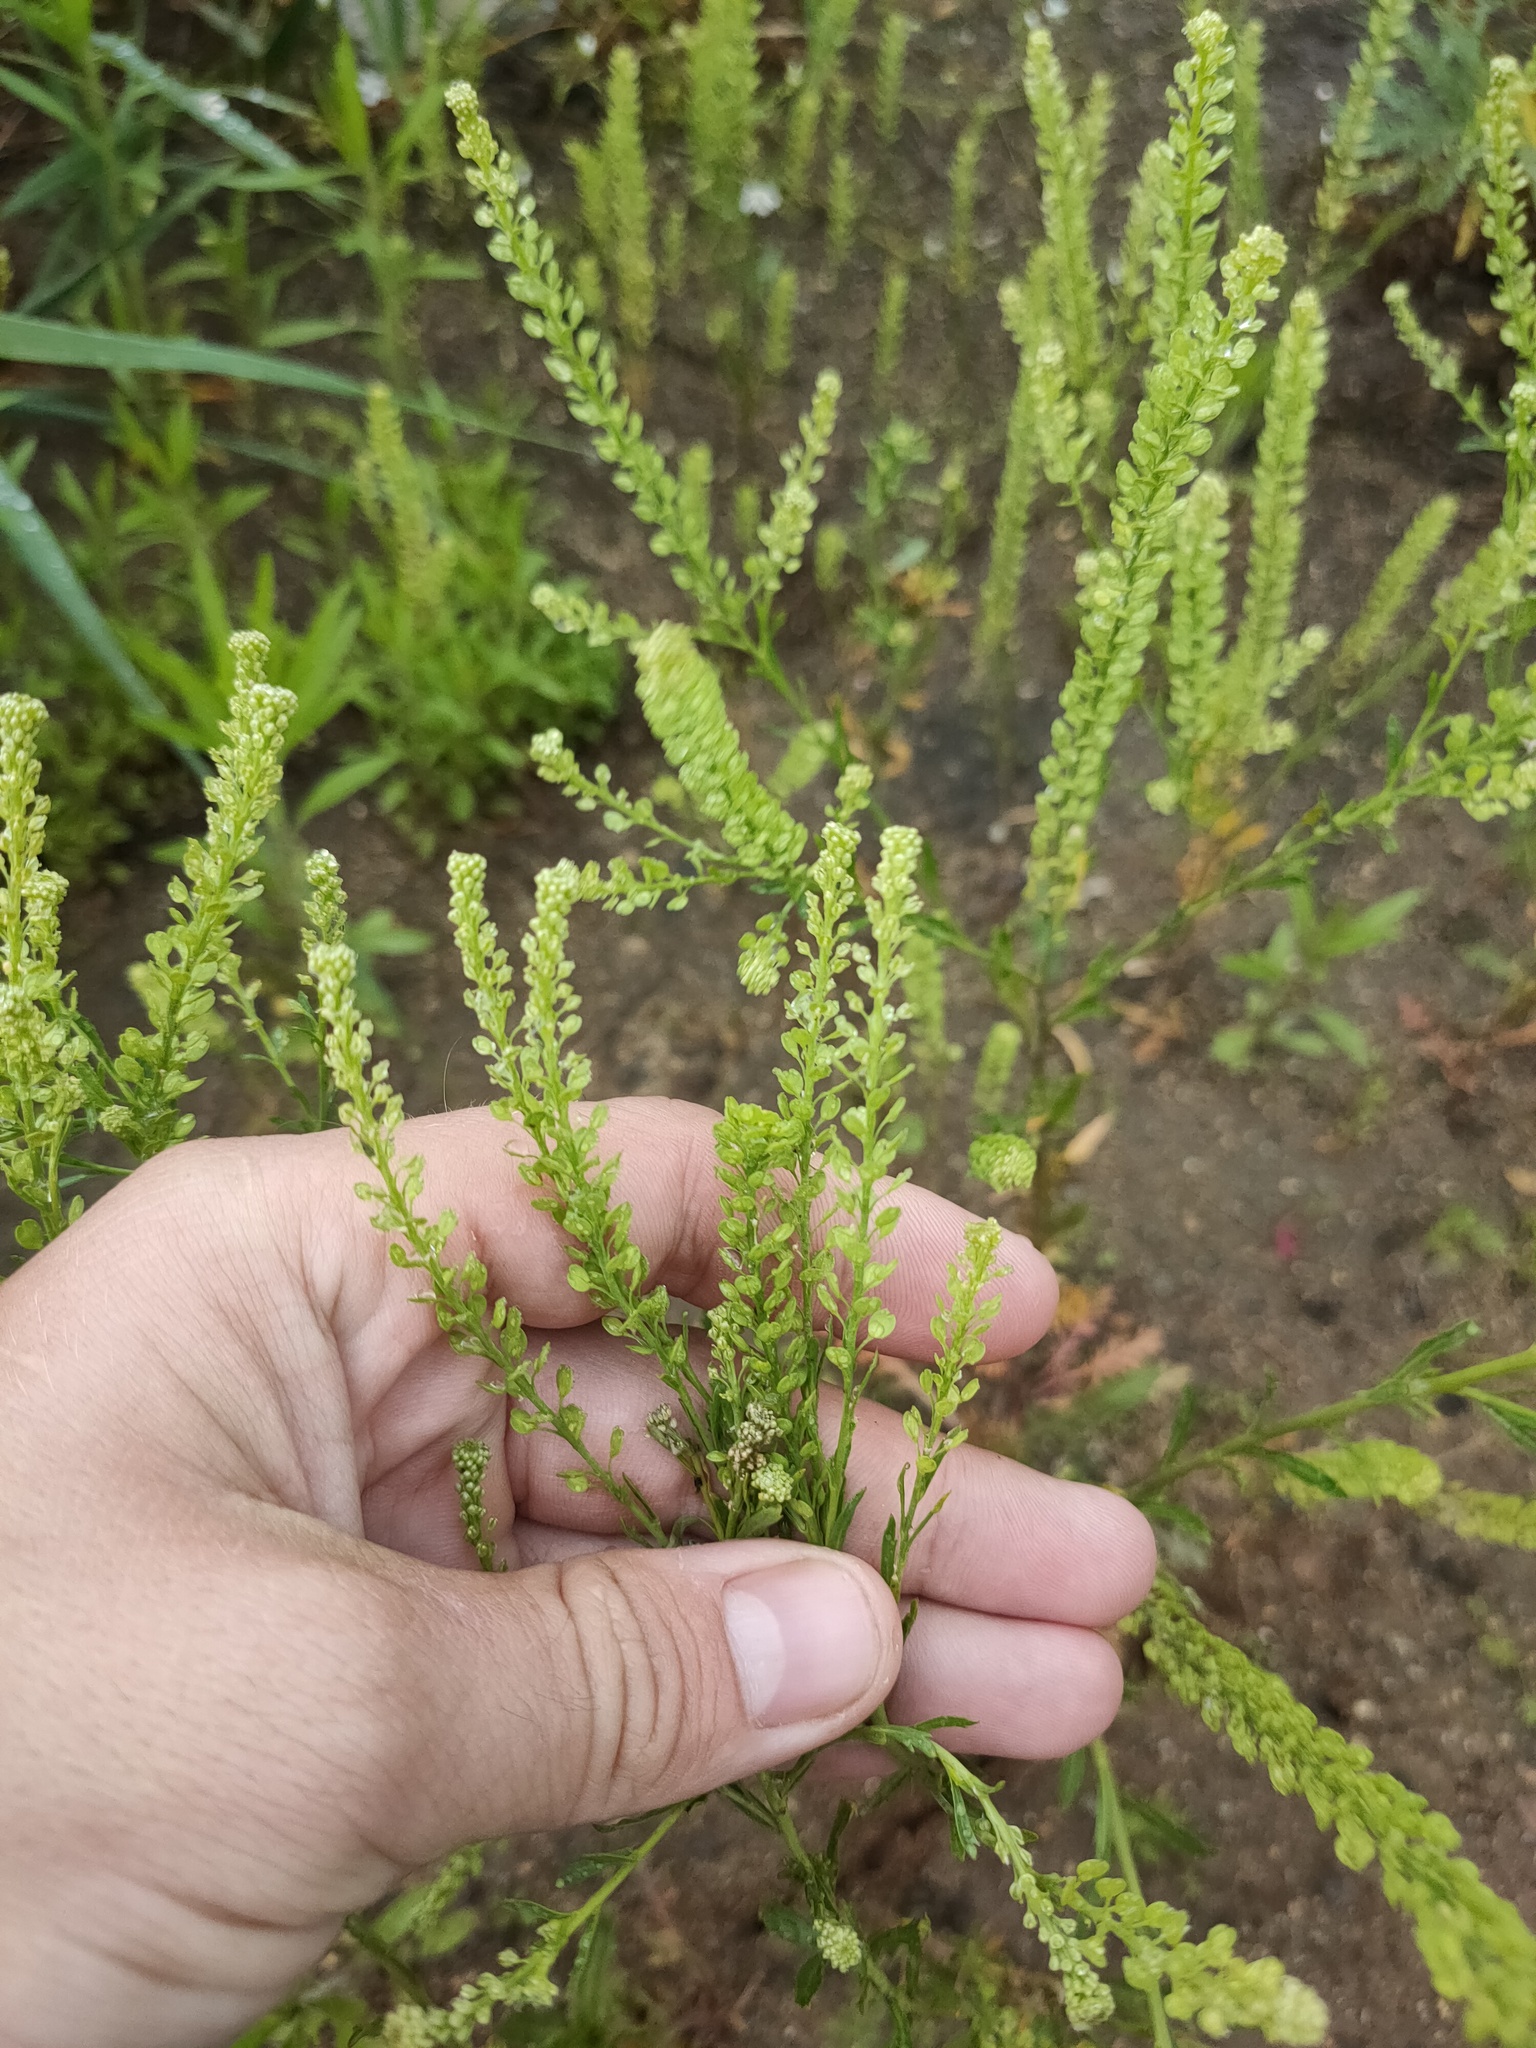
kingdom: Plantae
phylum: Tracheophyta
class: Magnoliopsida
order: Brassicales
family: Brassicaceae
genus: Lepidium
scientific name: Lepidium densiflorum
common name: Miner's pepperwort
